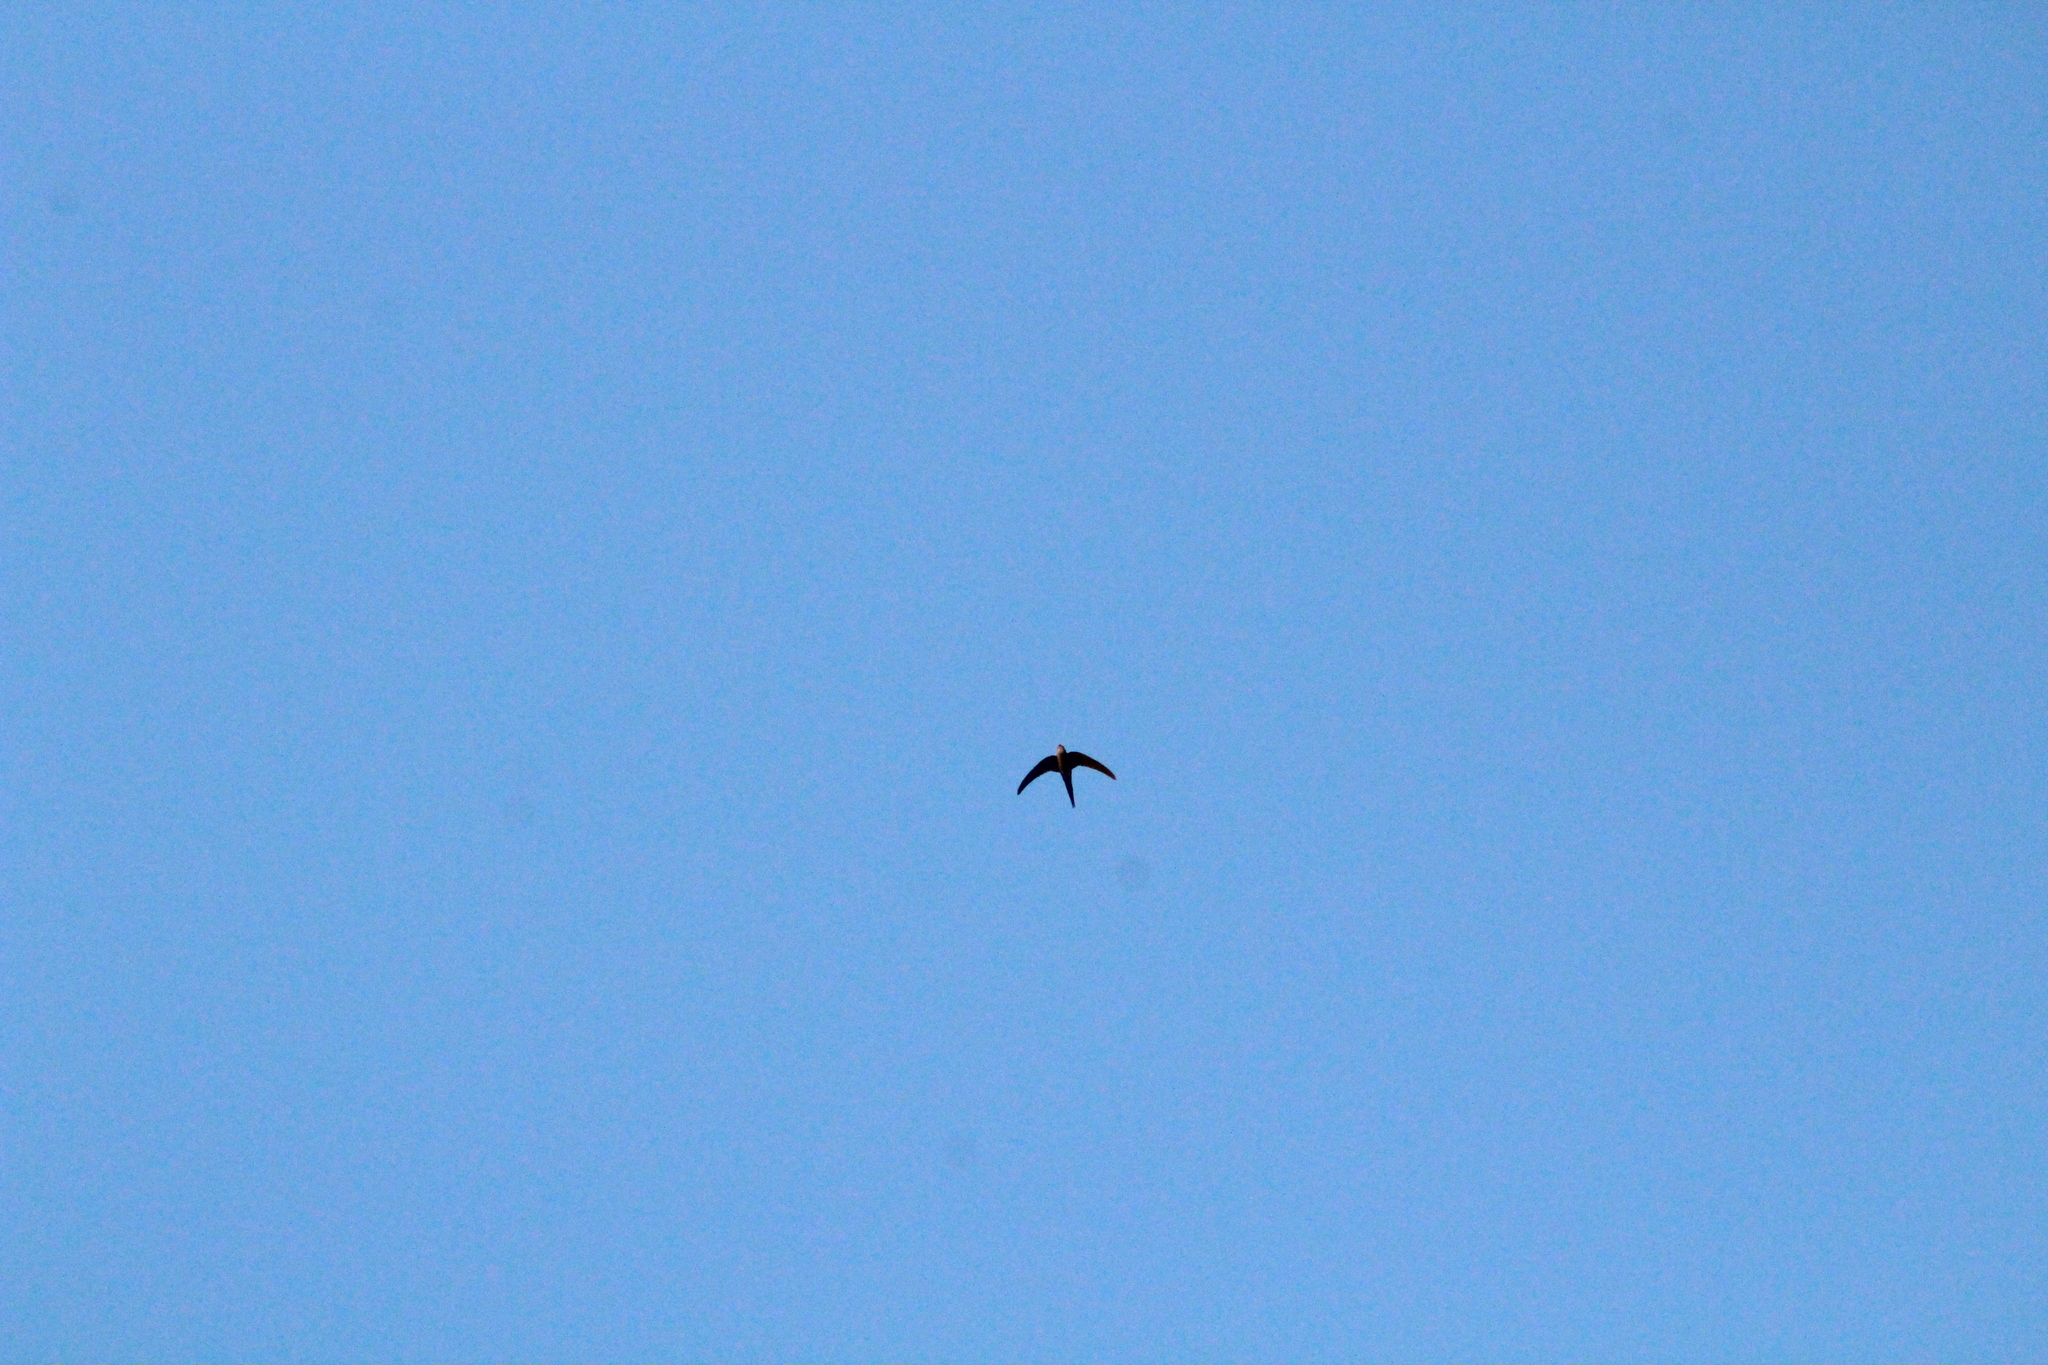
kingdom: Animalia
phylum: Chordata
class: Aves
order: Apodiformes
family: Apodidae
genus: Tachornis
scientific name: Tachornis squamata
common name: Neotropical palm swift
